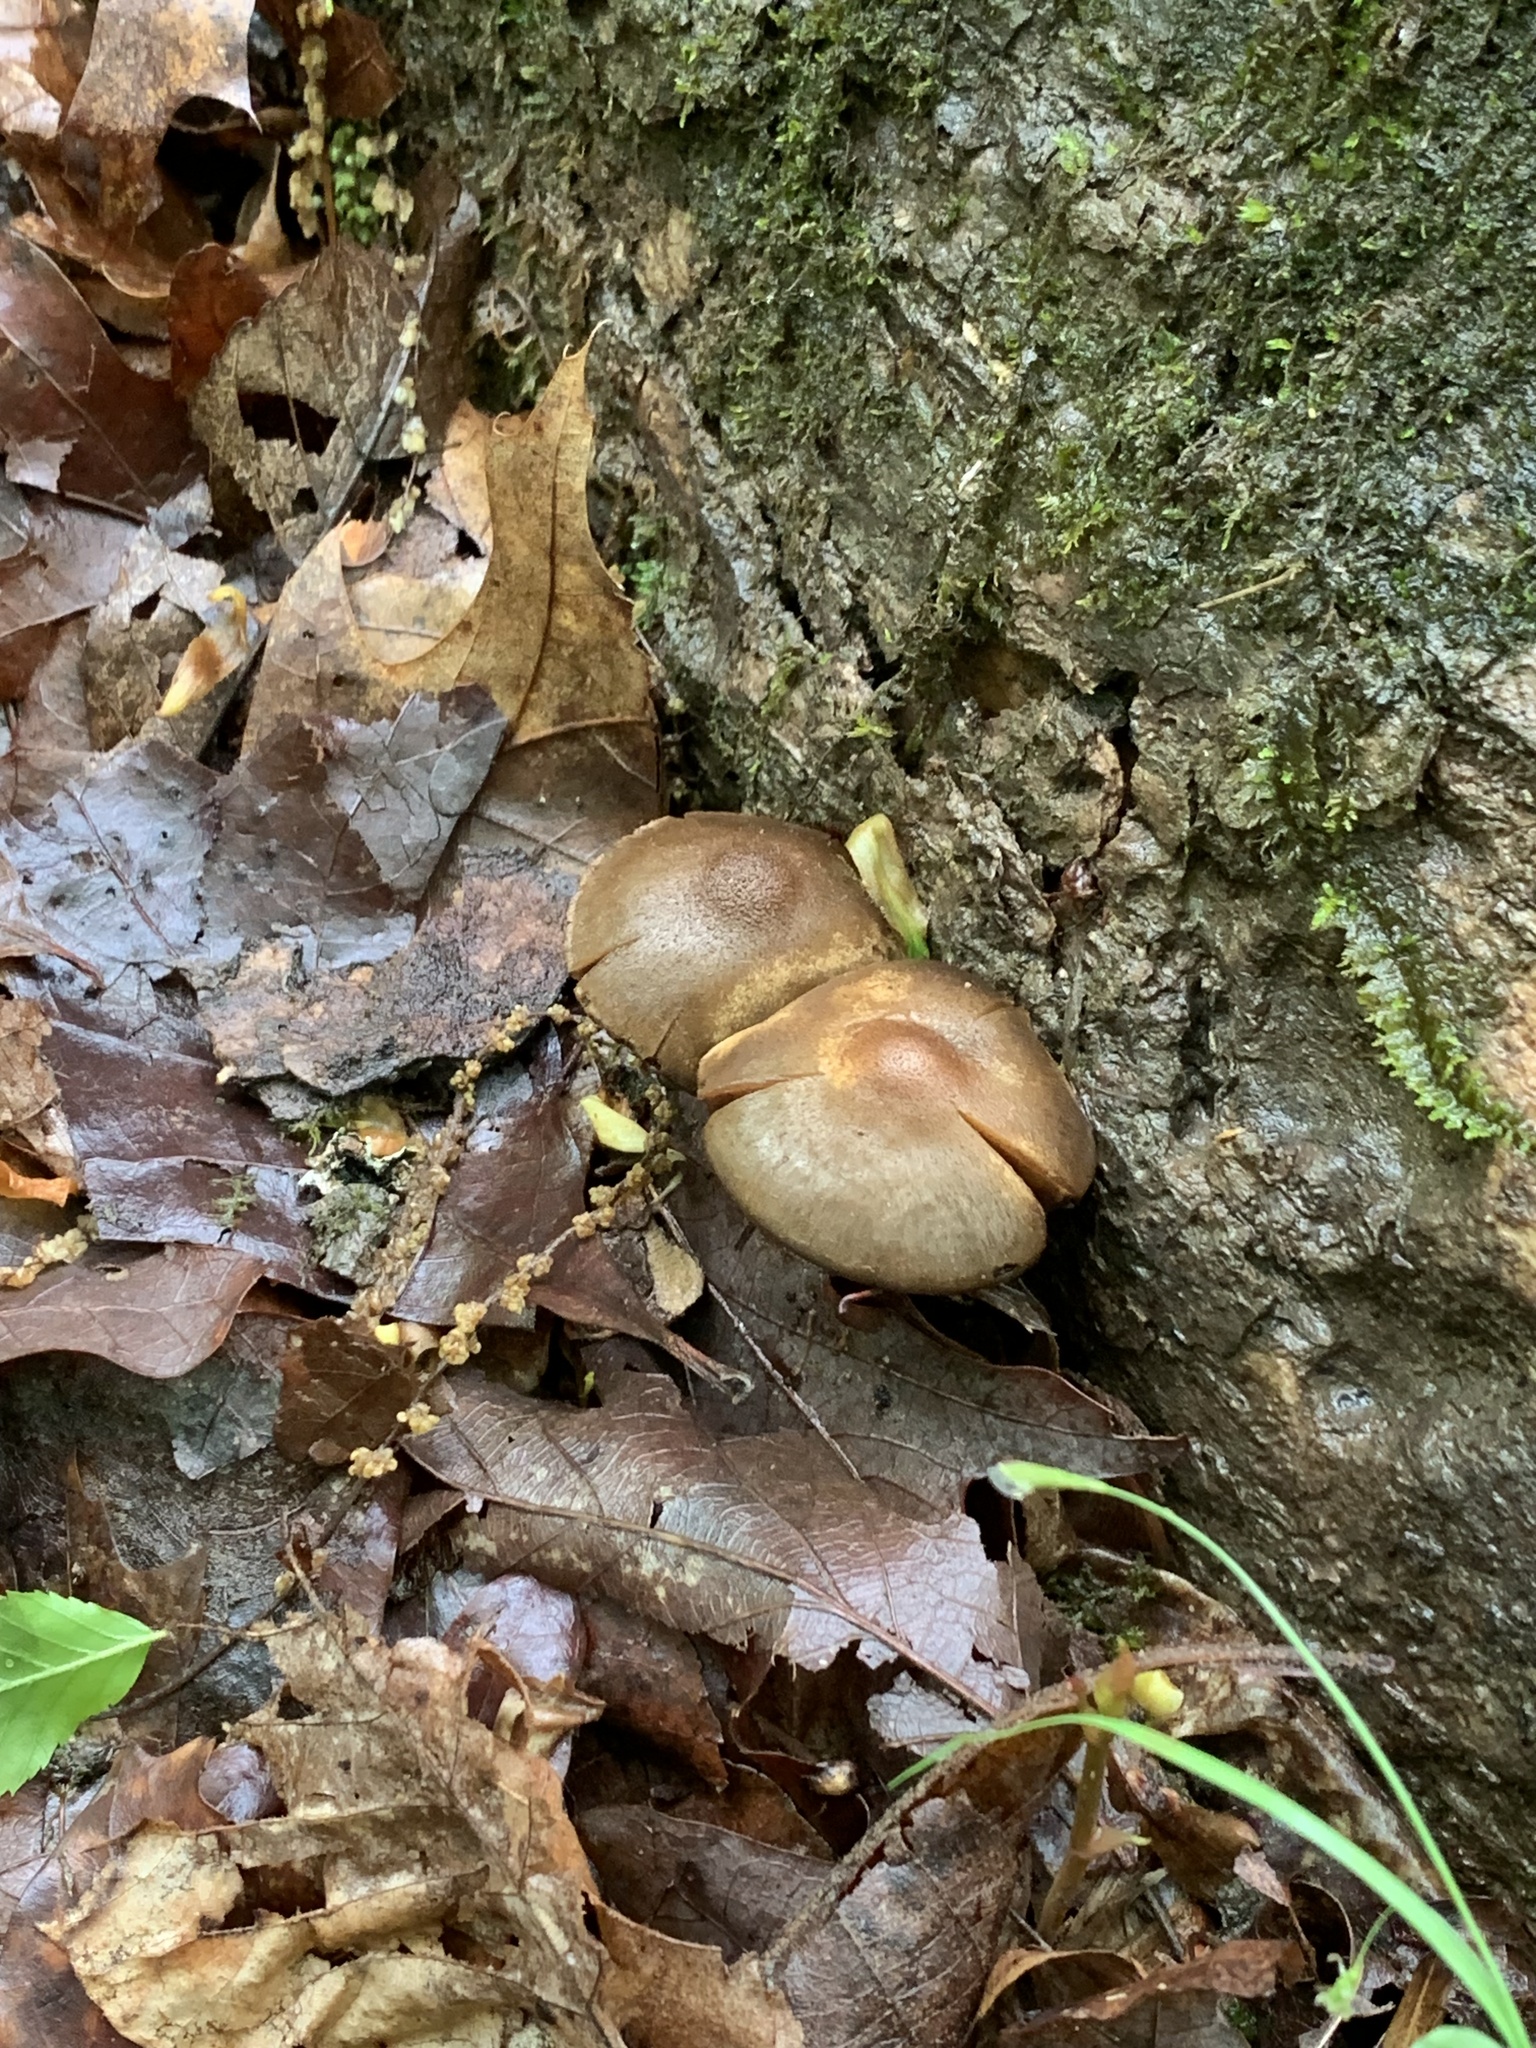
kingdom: Fungi
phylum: Basidiomycota
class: Agaricomycetes
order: Agaricales
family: Psathyrellaceae
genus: Lacrymaria
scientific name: Lacrymaria lacrymabunda
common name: Weeping widow
